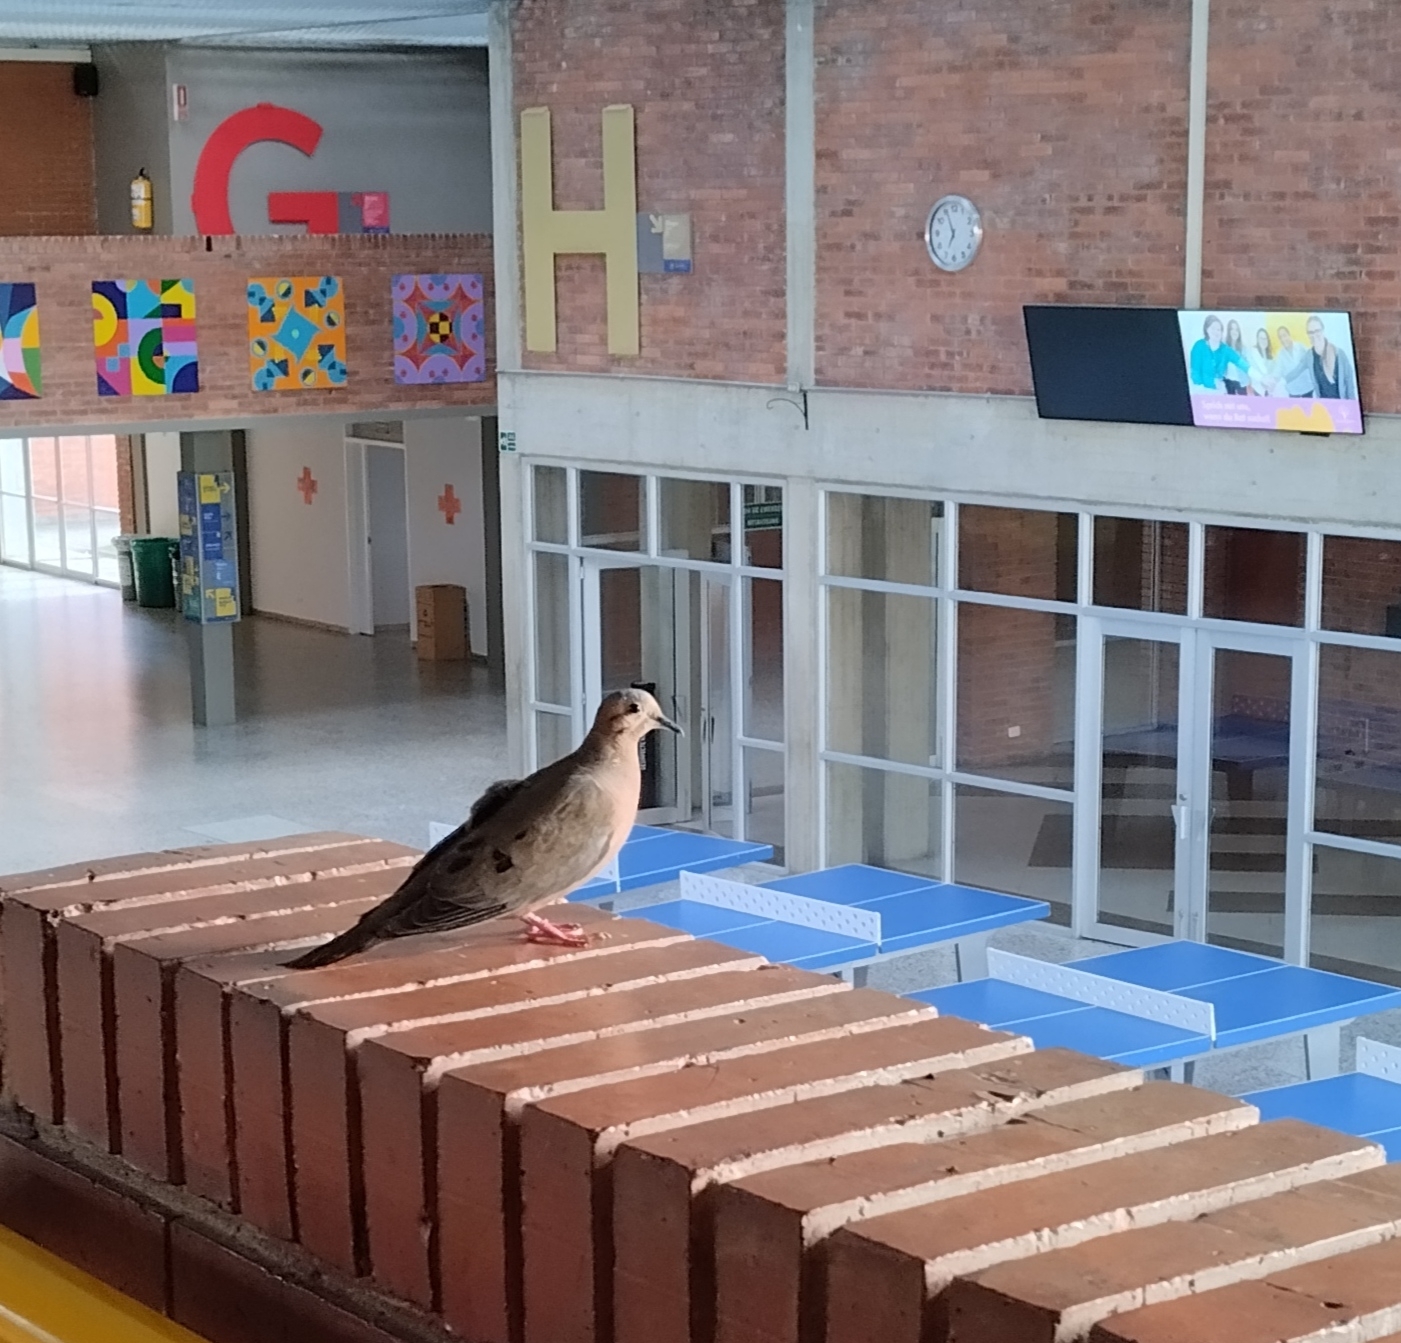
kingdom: Animalia
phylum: Chordata
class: Aves
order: Columbiformes
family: Columbidae
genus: Zenaida
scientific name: Zenaida auriculata
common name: Eared dove
